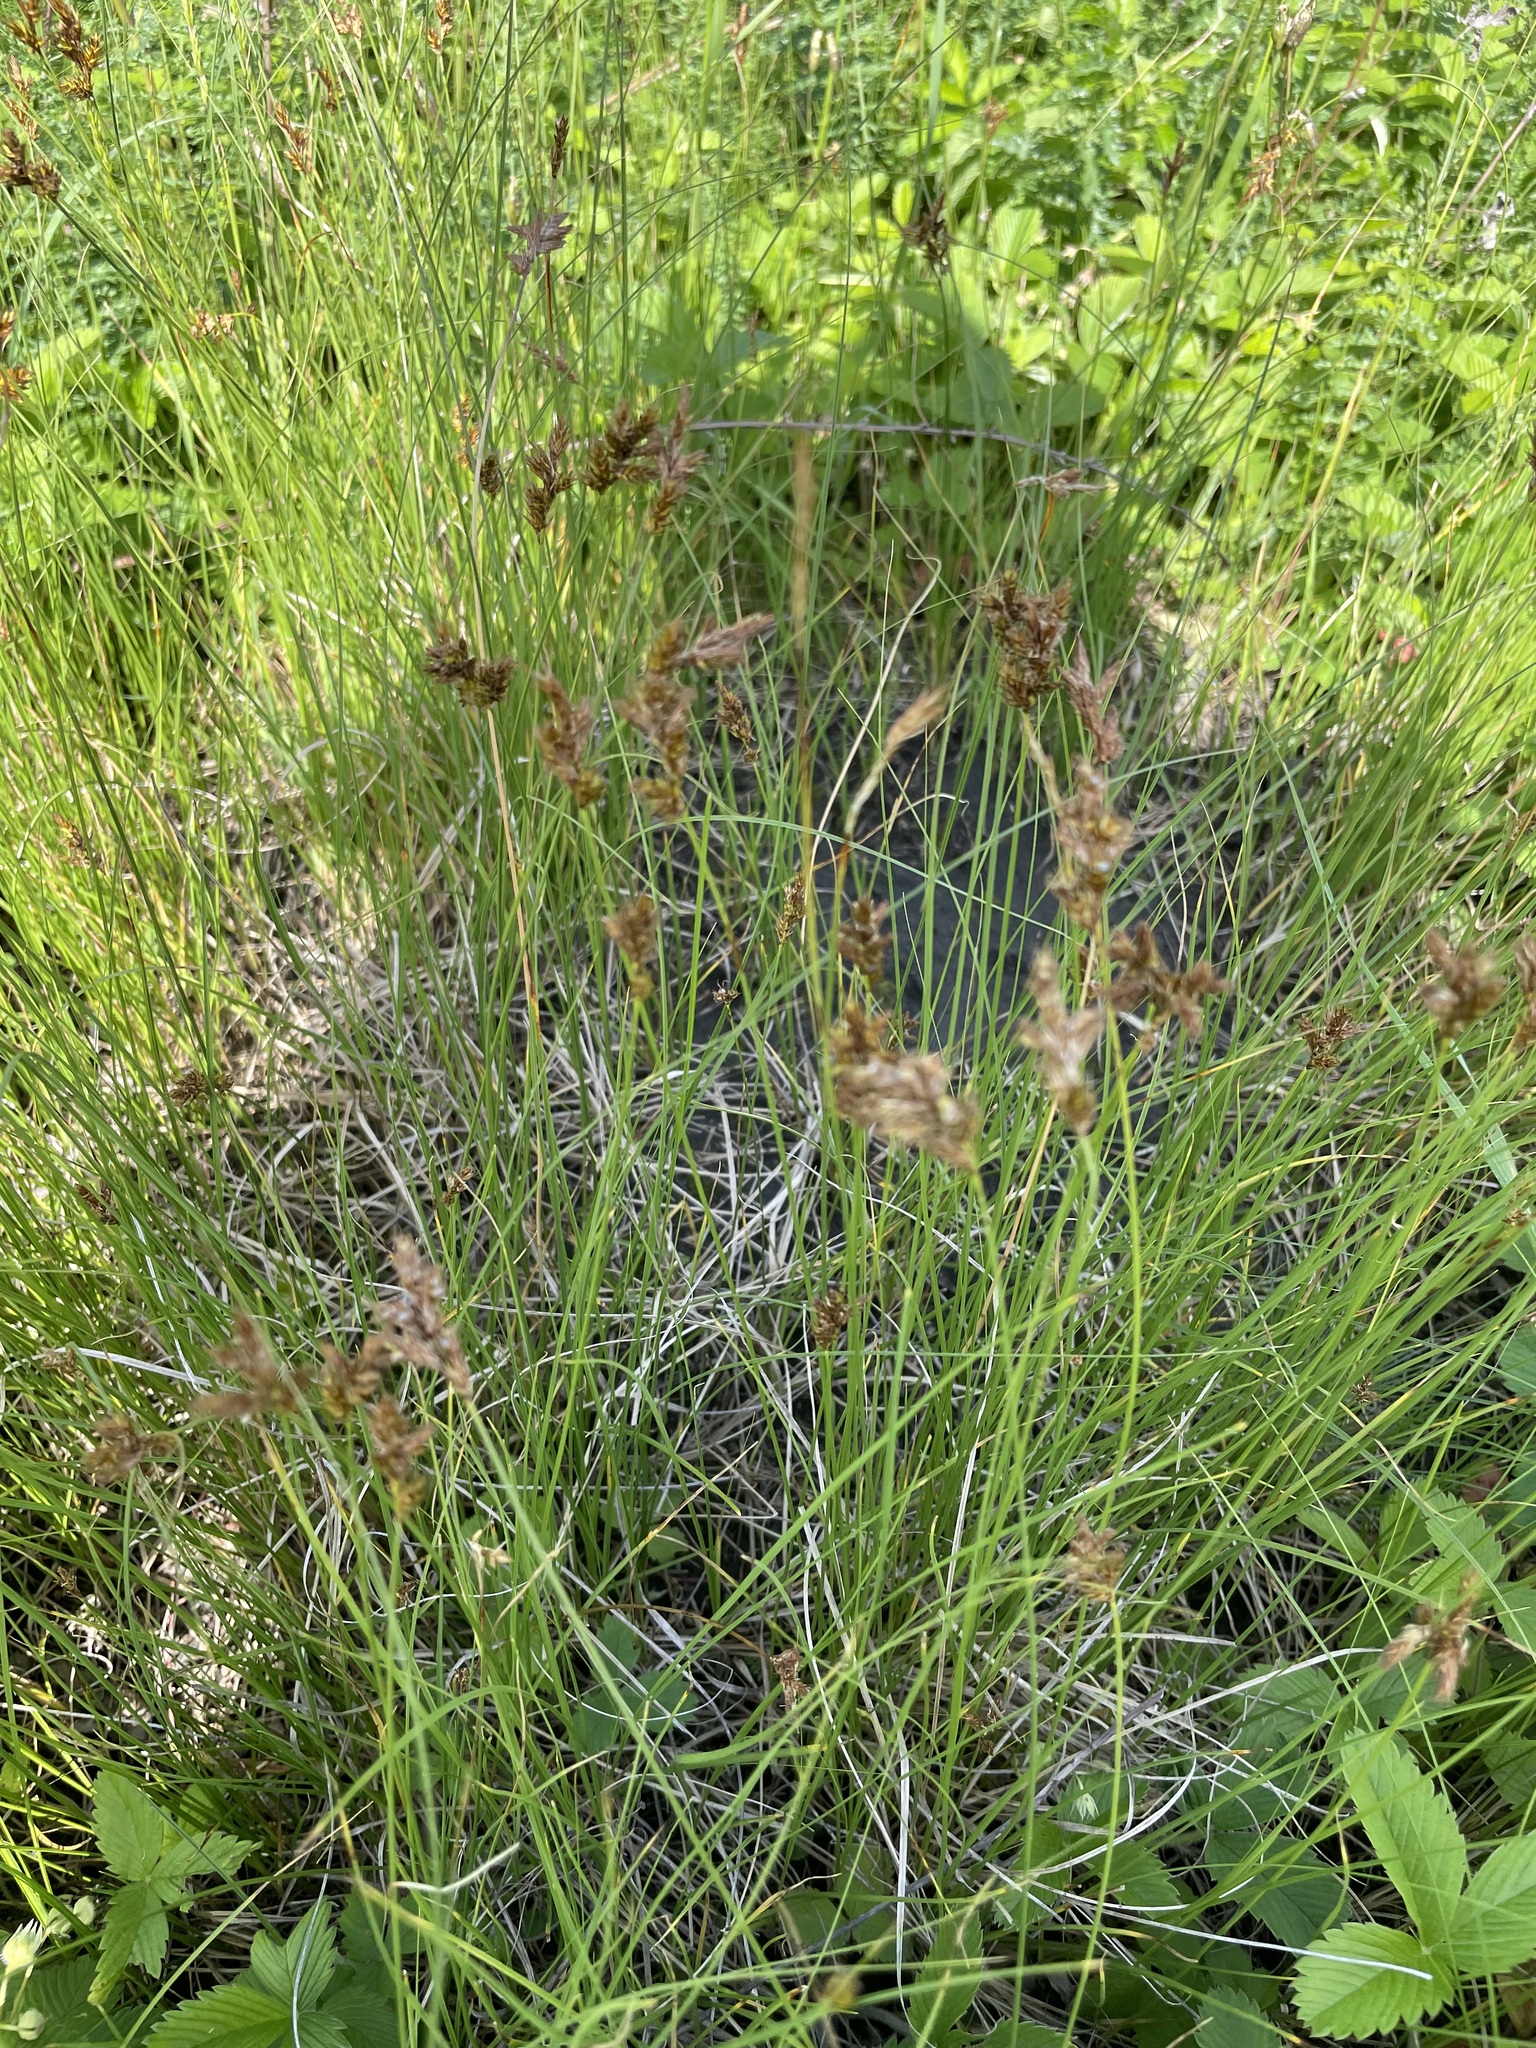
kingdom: Plantae
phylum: Tracheophyta
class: Liliopsida
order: Poales
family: Cyperaceae
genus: Carex
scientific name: Carex praecox
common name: Early sedge
